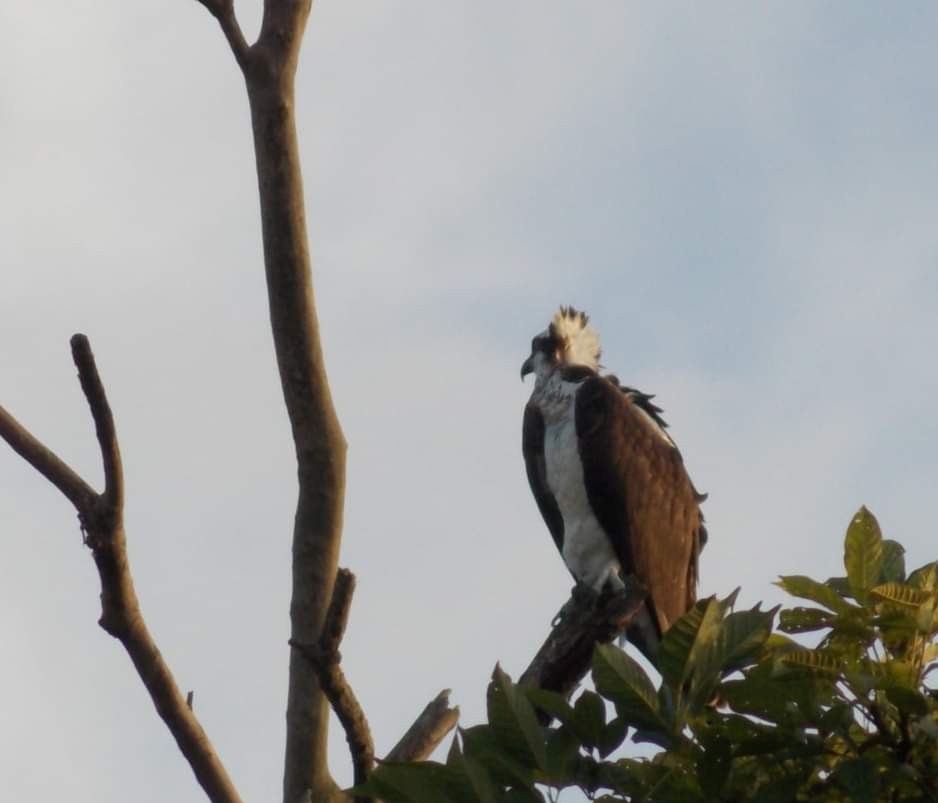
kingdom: Animalia
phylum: Chordata
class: Aves
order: Accipitriformes
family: Pandionidae
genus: Pandion
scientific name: Pandion haliaetus
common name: Osprey
